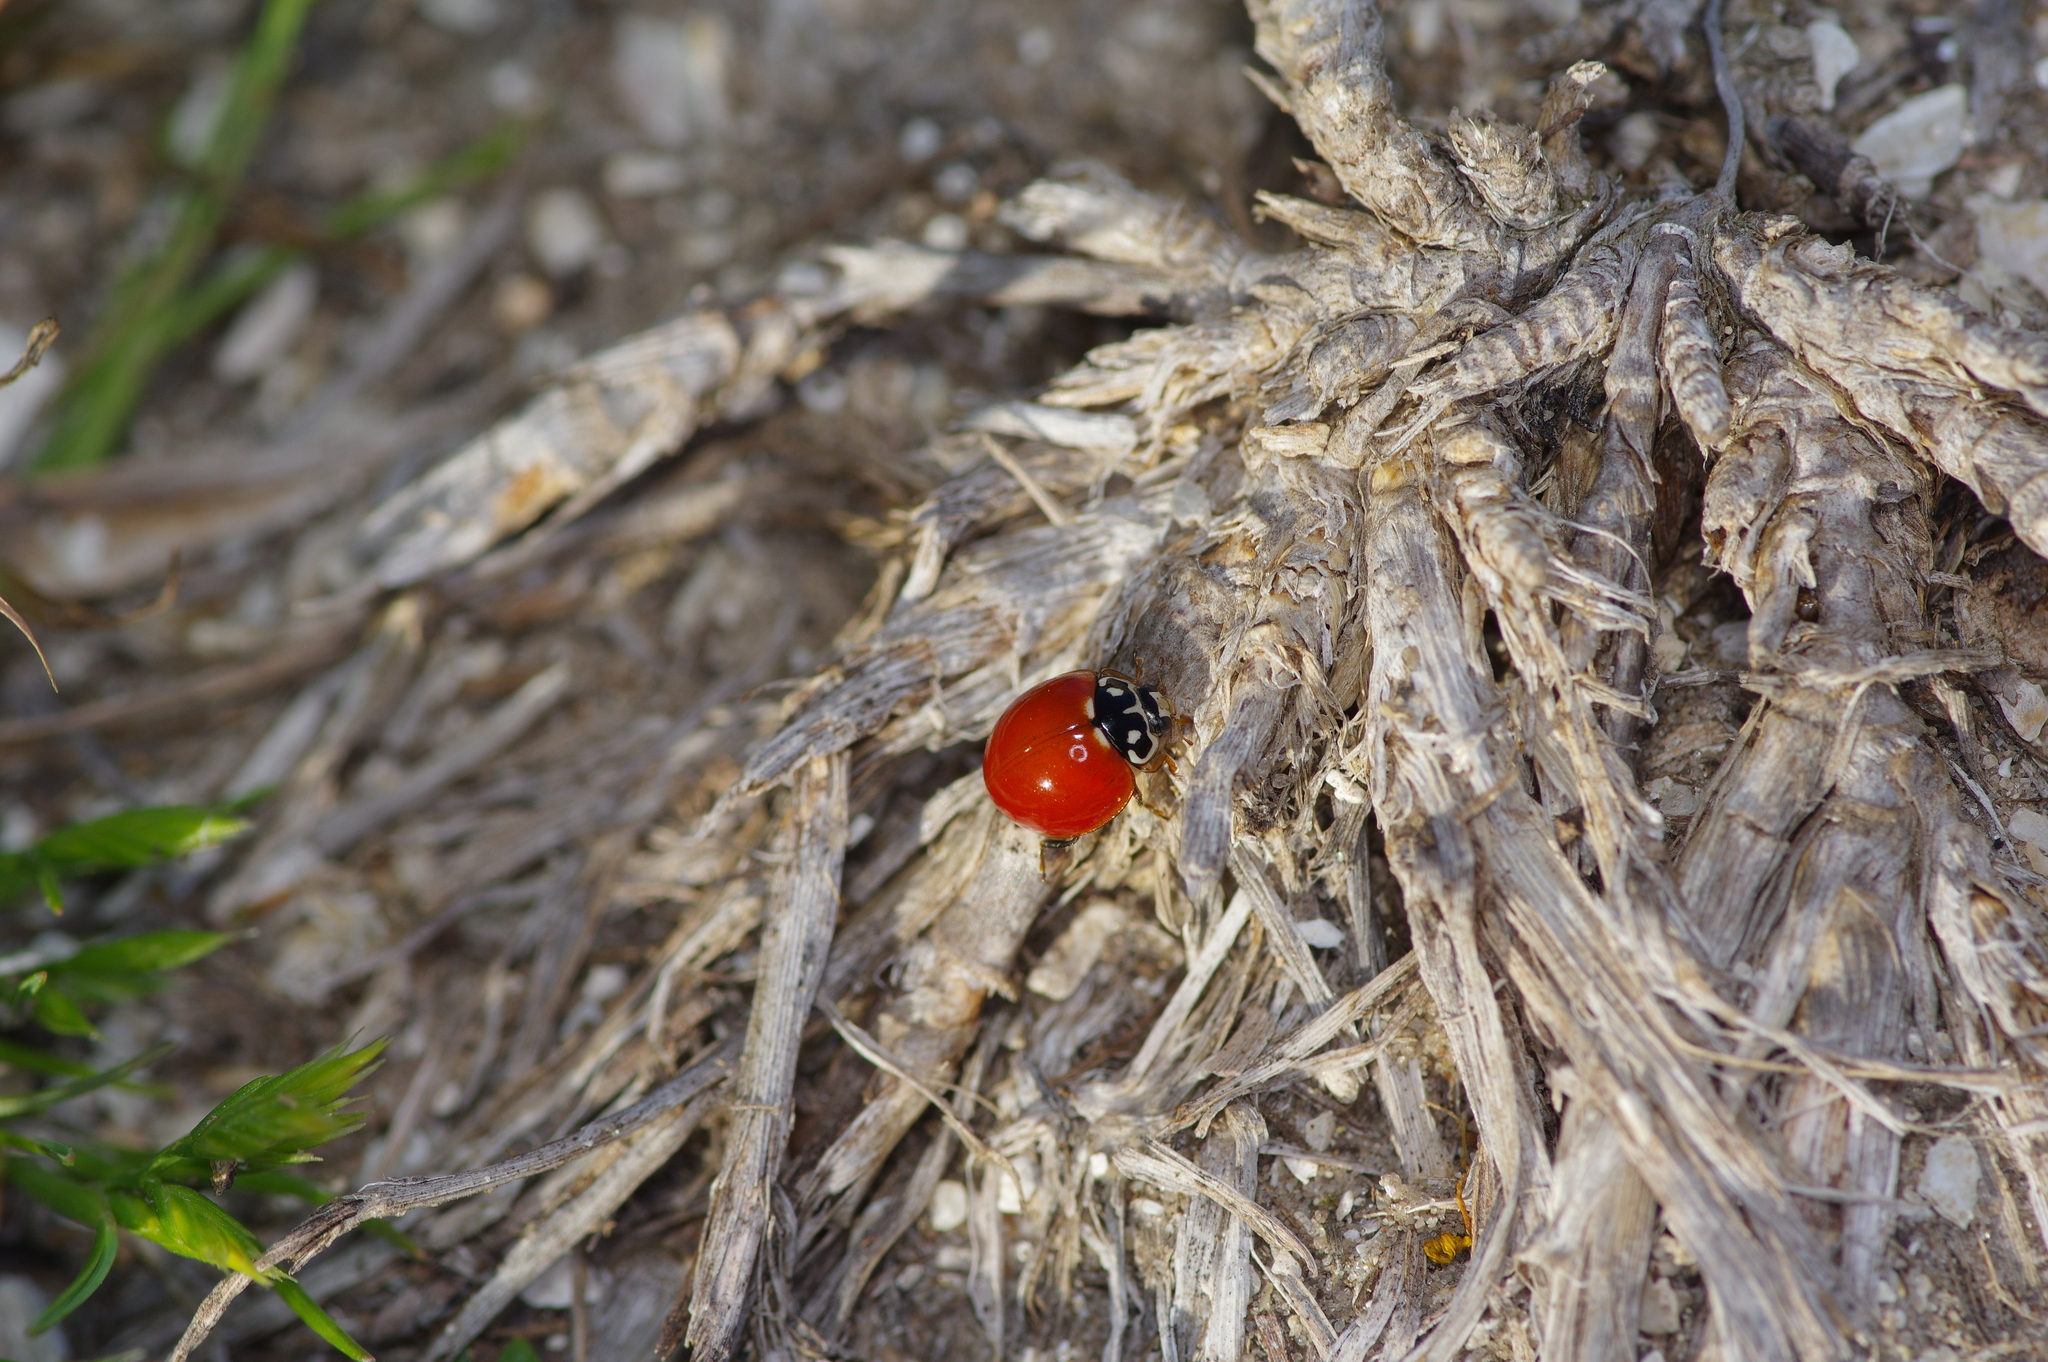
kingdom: Animalia
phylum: Arthropoda
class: Insecta
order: Coleoptera
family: Coccinellidae
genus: Cycloneda
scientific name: Cycloneda sanguinea
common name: Ladybird beetle
